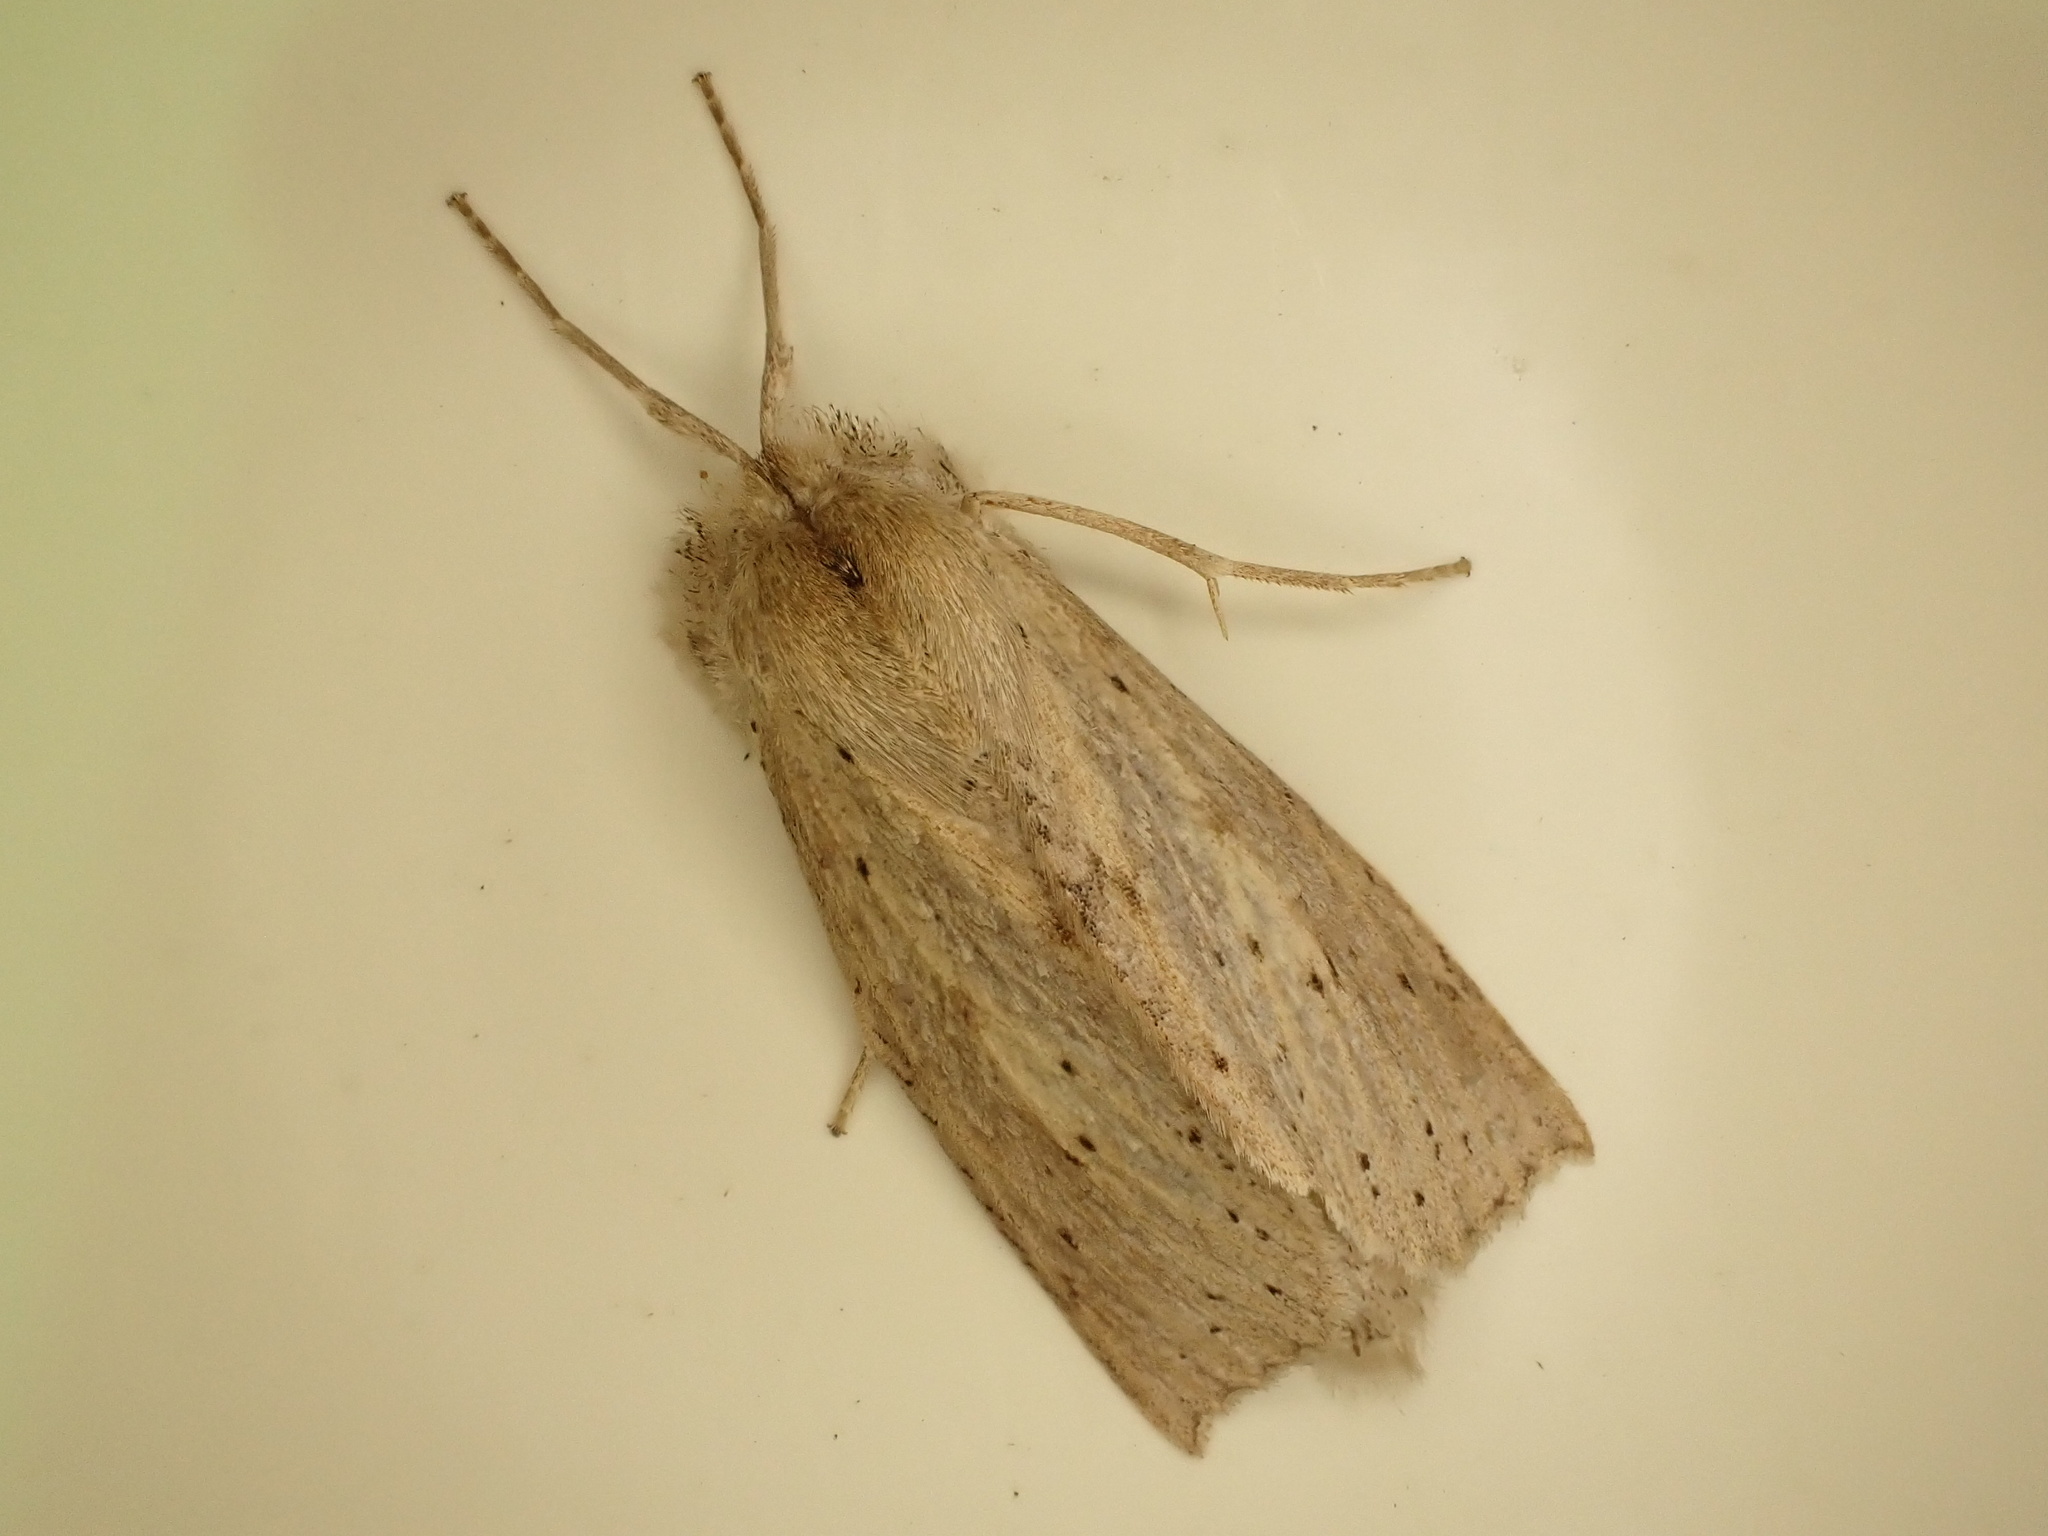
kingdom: Animalia
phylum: Arthropoda
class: Insecta
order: Lepidoptera
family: Geometridae
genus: Declana
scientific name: Declana leptomera
